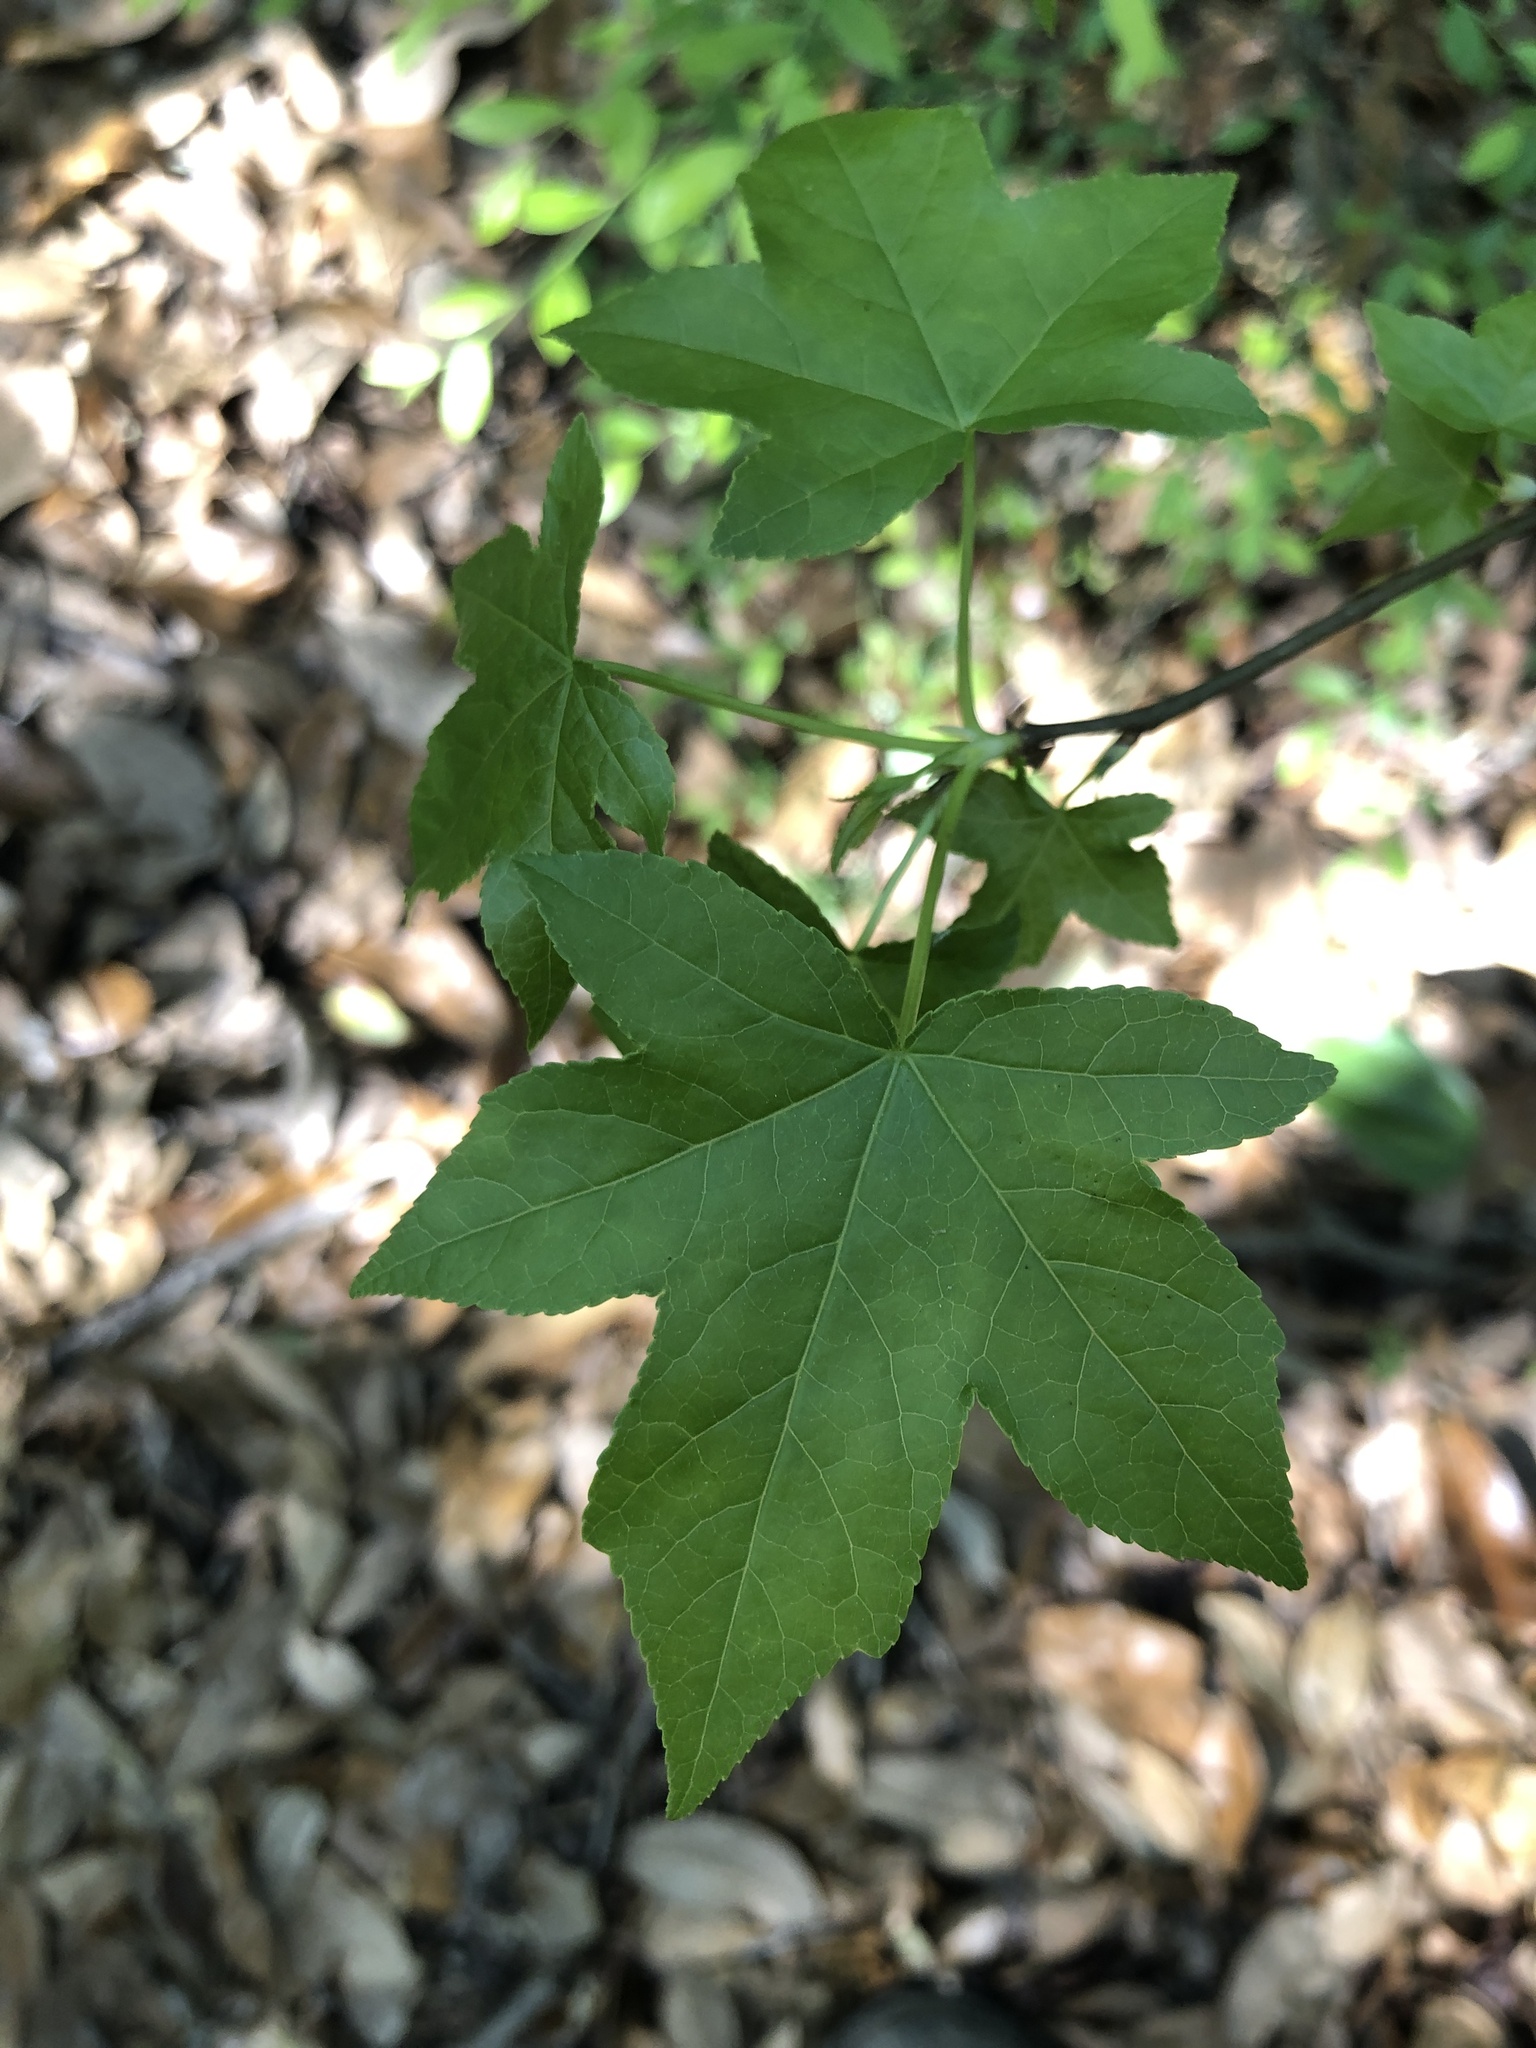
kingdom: Plantae
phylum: Tracheophyta
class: Magnoliopsida
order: Saxifragales
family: Altingiaceae
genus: Liquidambar
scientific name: Liquidambar styraciflua
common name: Sweet gum
